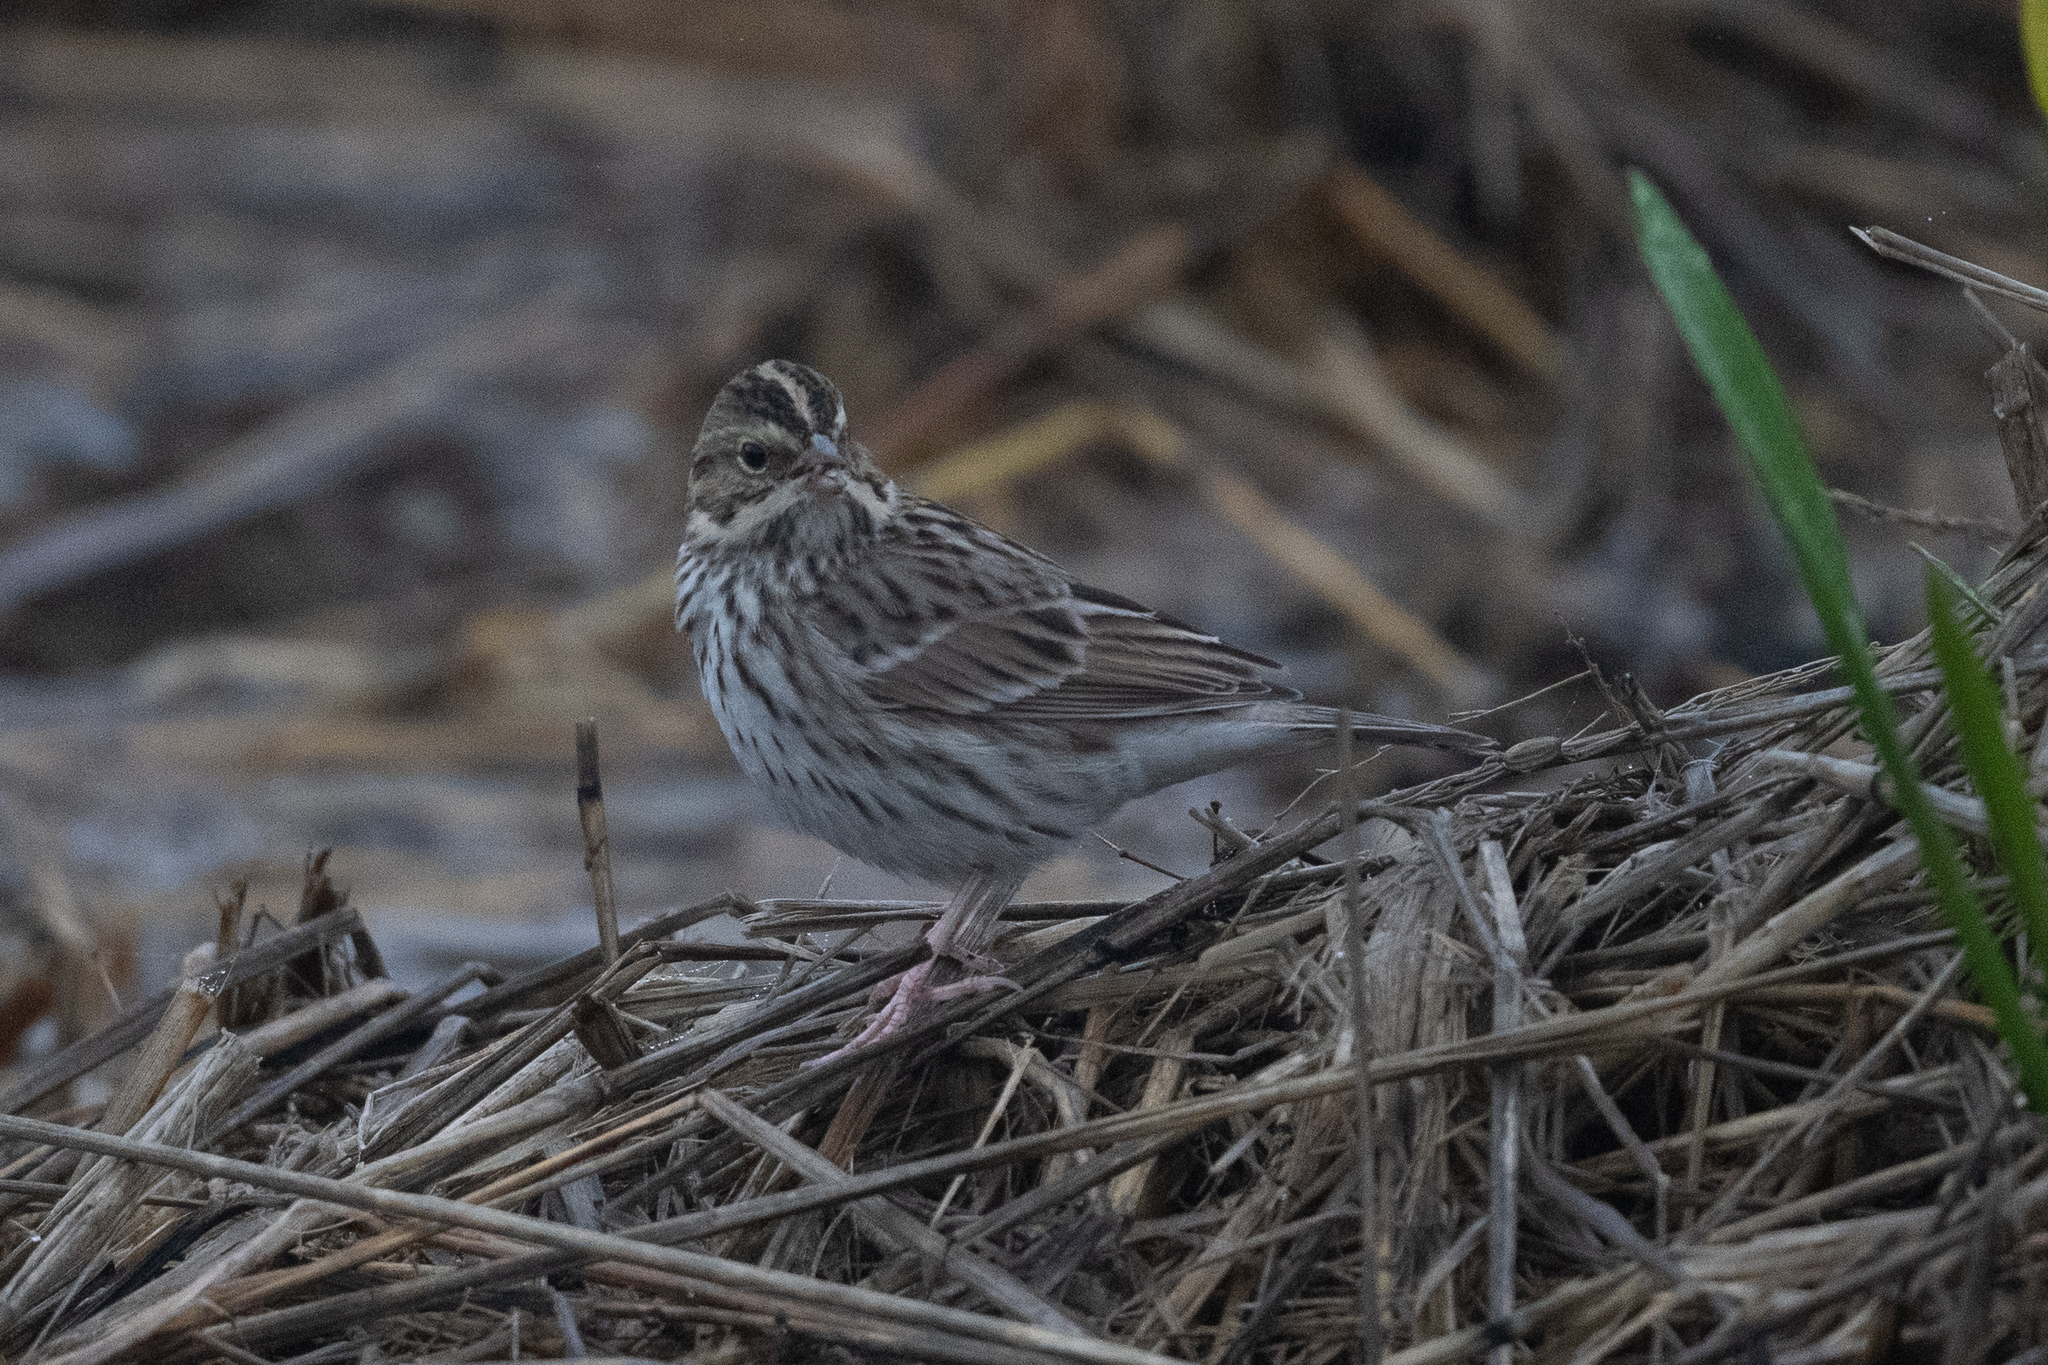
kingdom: Animalia
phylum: Chordata
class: Aves
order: Passeriformes
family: Passerellidae
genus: Passerculus
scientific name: Passerculus sandwichensis
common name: Savannah sparrow
